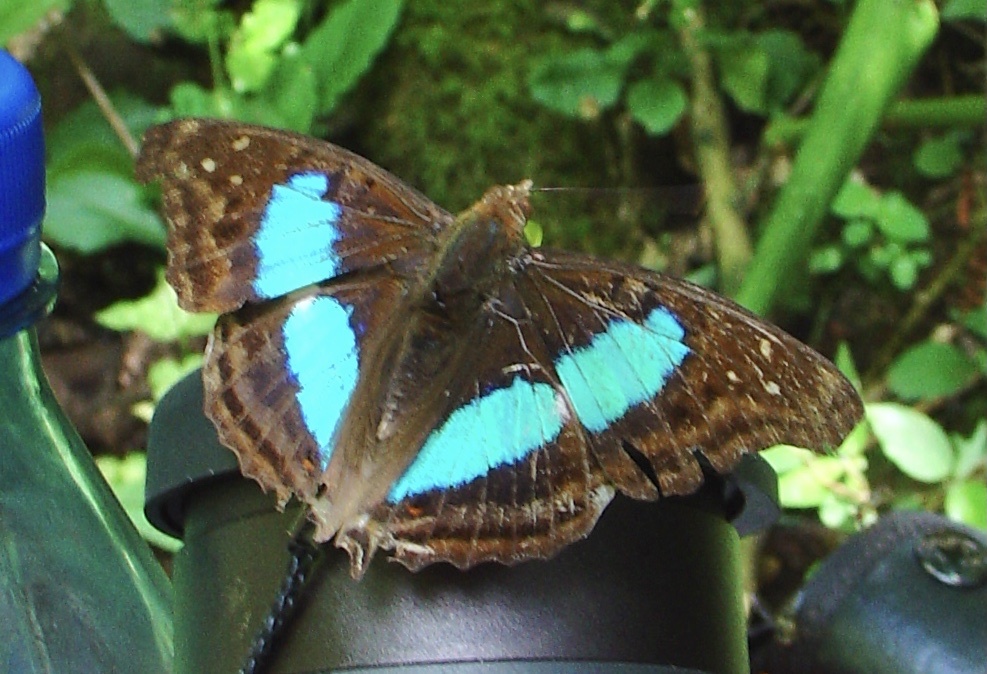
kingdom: Animalia
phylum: Arthropoda
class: Insecta
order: Lepidoptera
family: Nymphalidae
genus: Doxocopa
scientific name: Doxocopa laurentia
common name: Turquoise emperor
